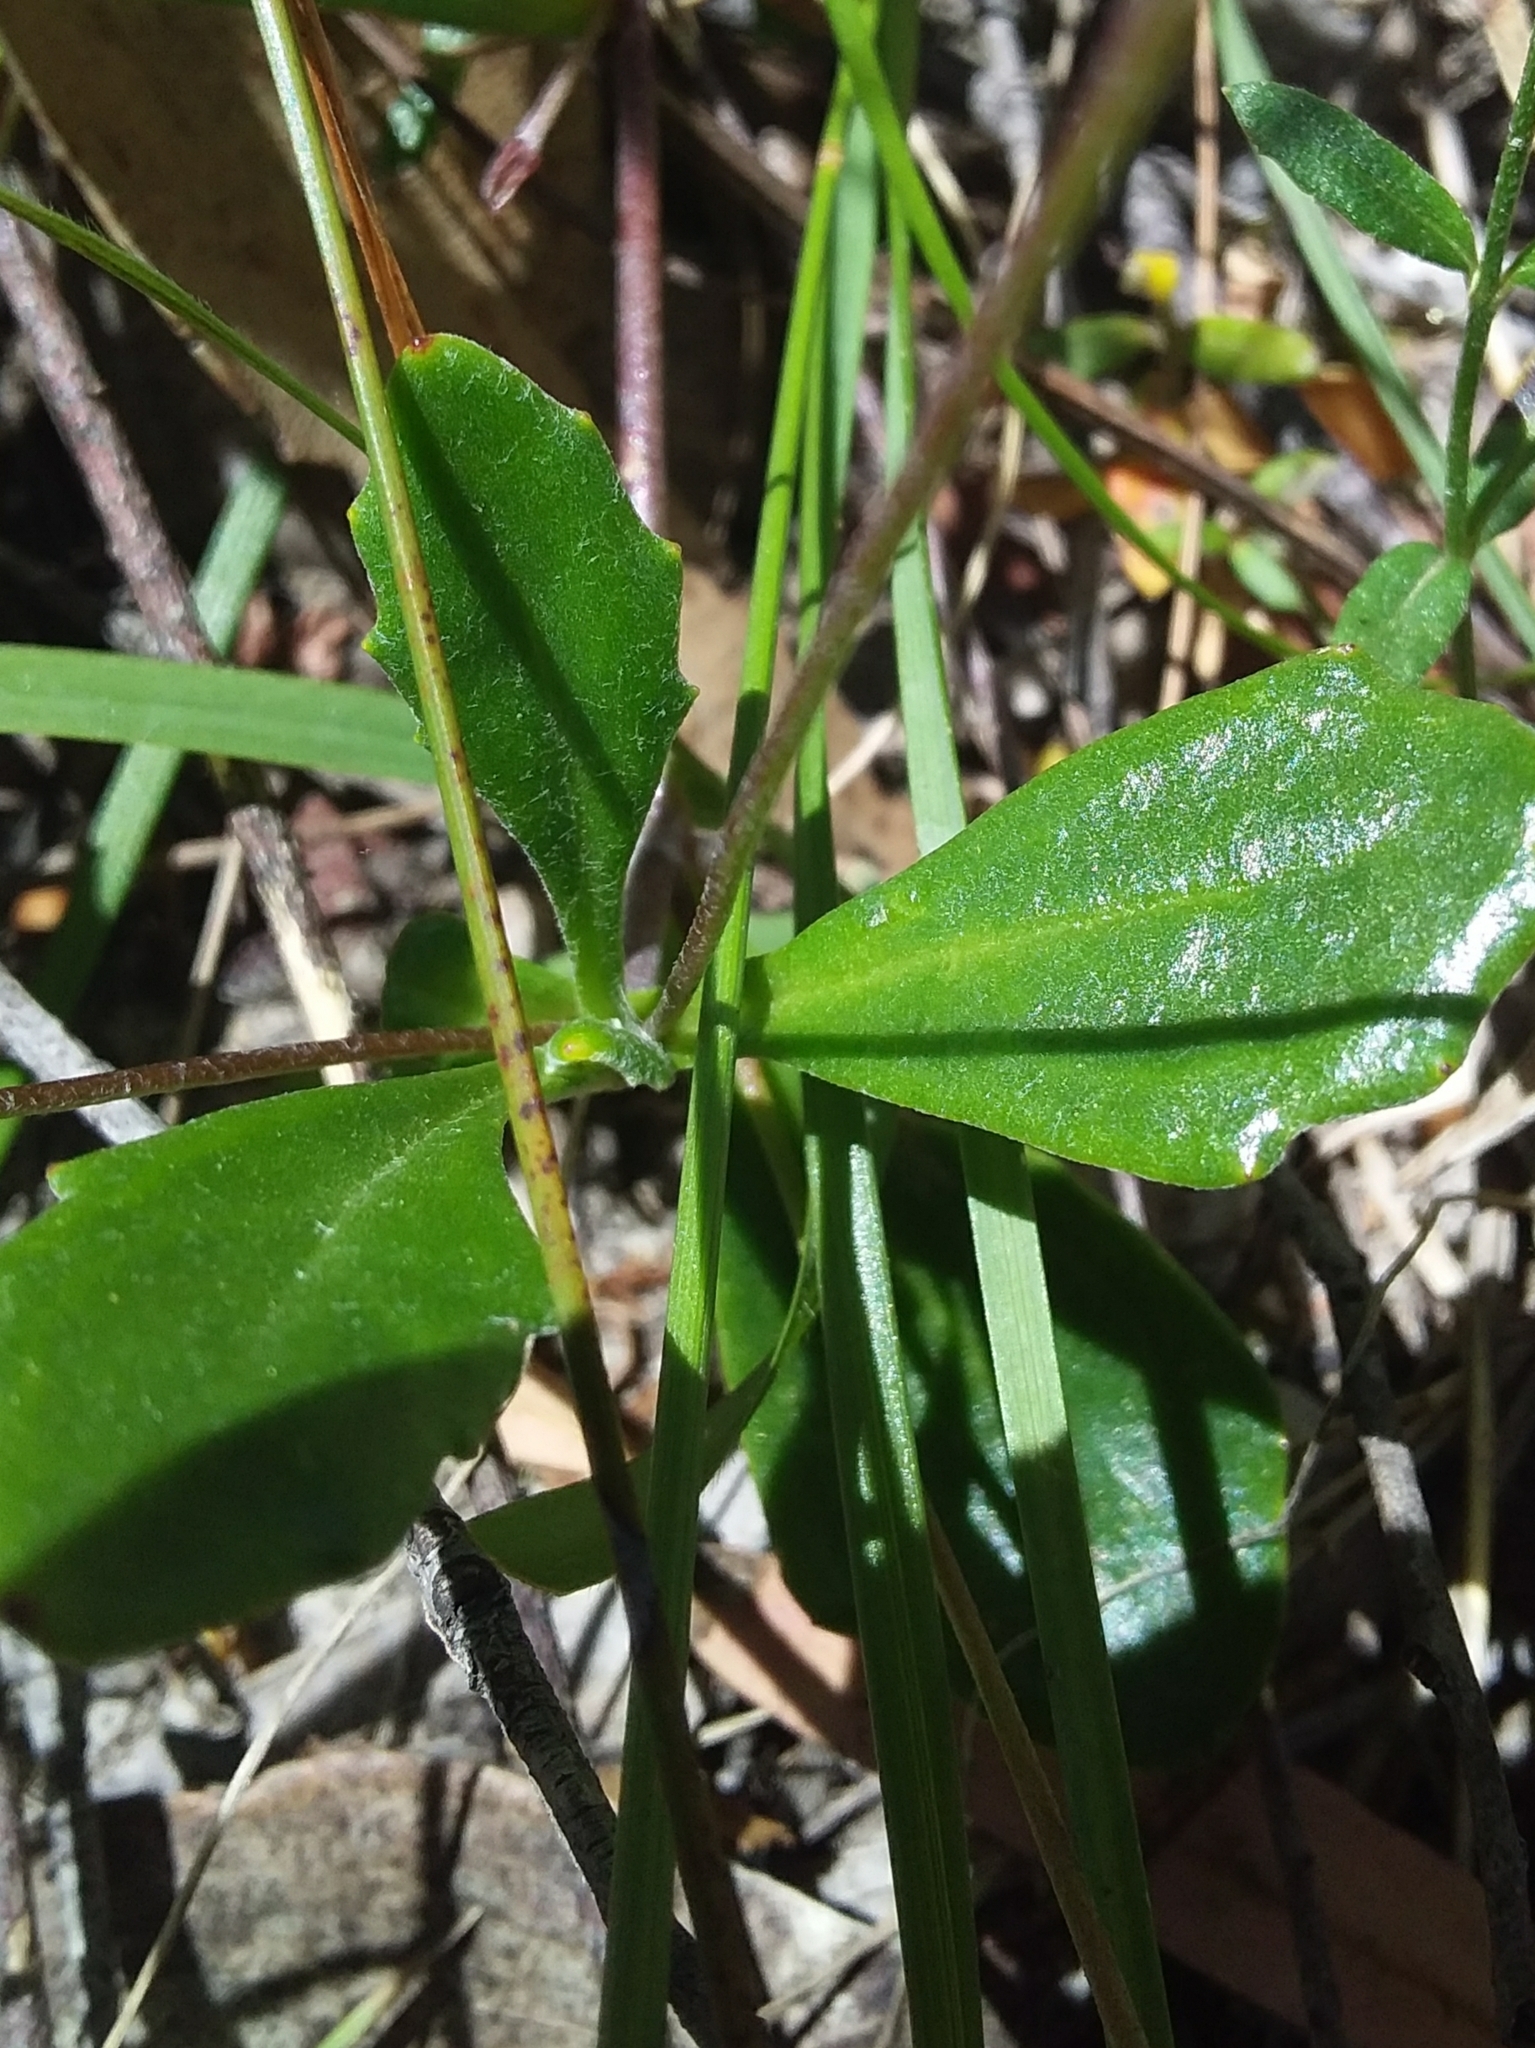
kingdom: Plantae
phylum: Tracheophyta
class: Magnoliopsida
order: Asterales
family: Goodeniaceae
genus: Goodenia
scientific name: Goodenia blackiana
